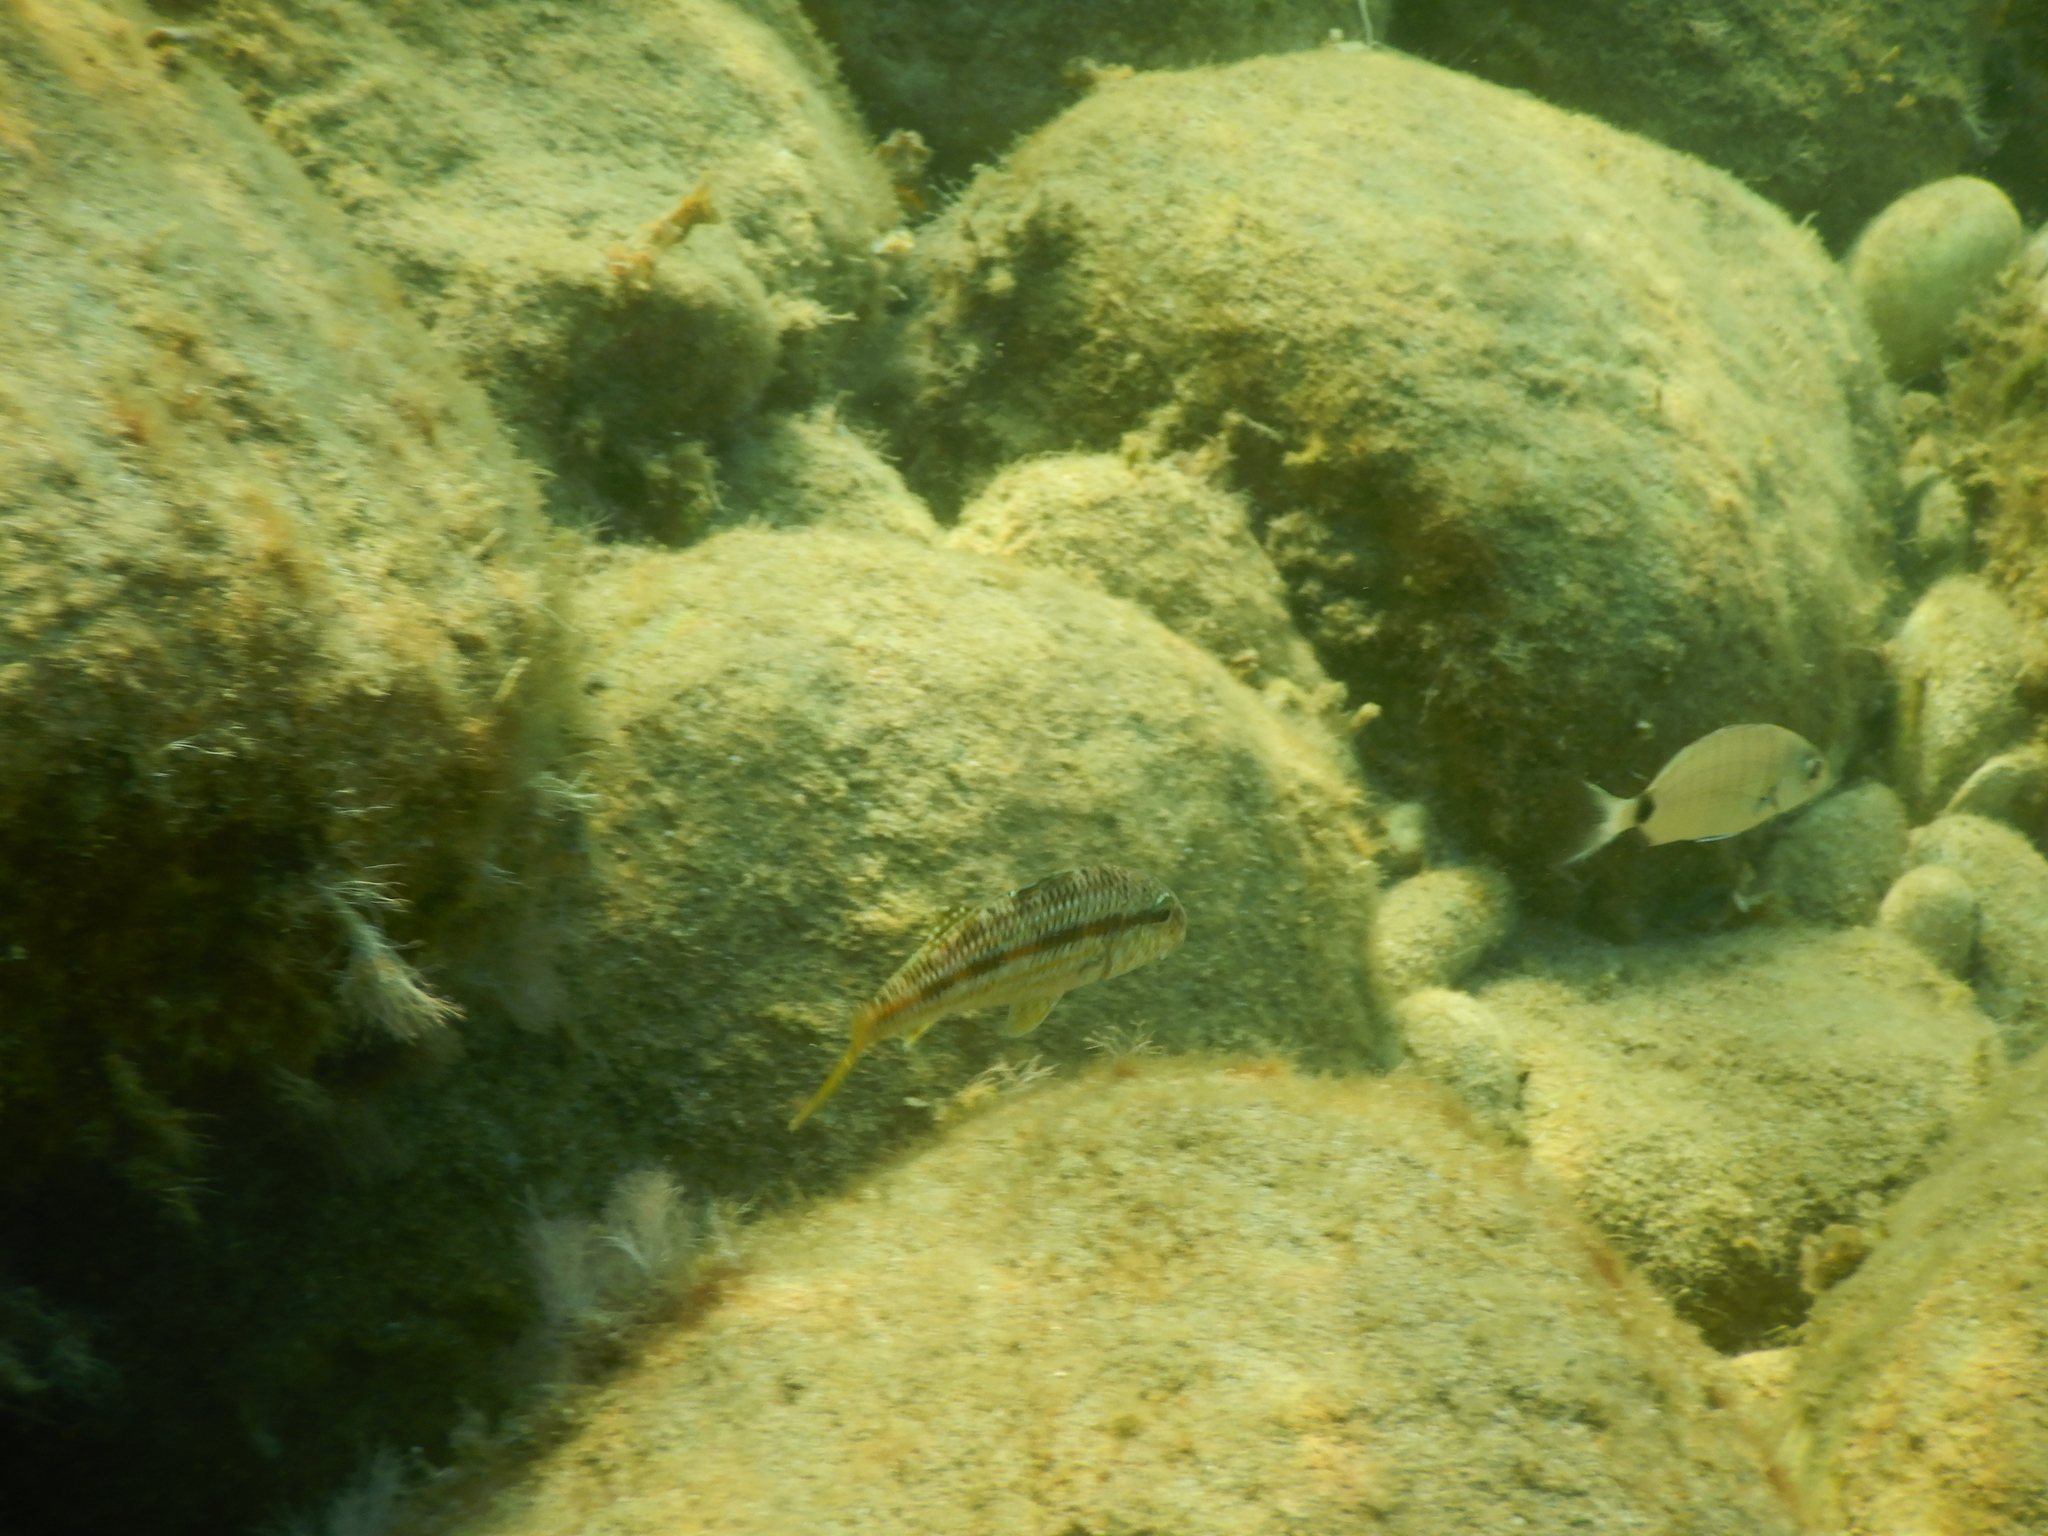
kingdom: Animalia
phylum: Chordata
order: Perciformes
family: Mullidae
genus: Mullus
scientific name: Mullus surmuletus
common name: Red mullet
